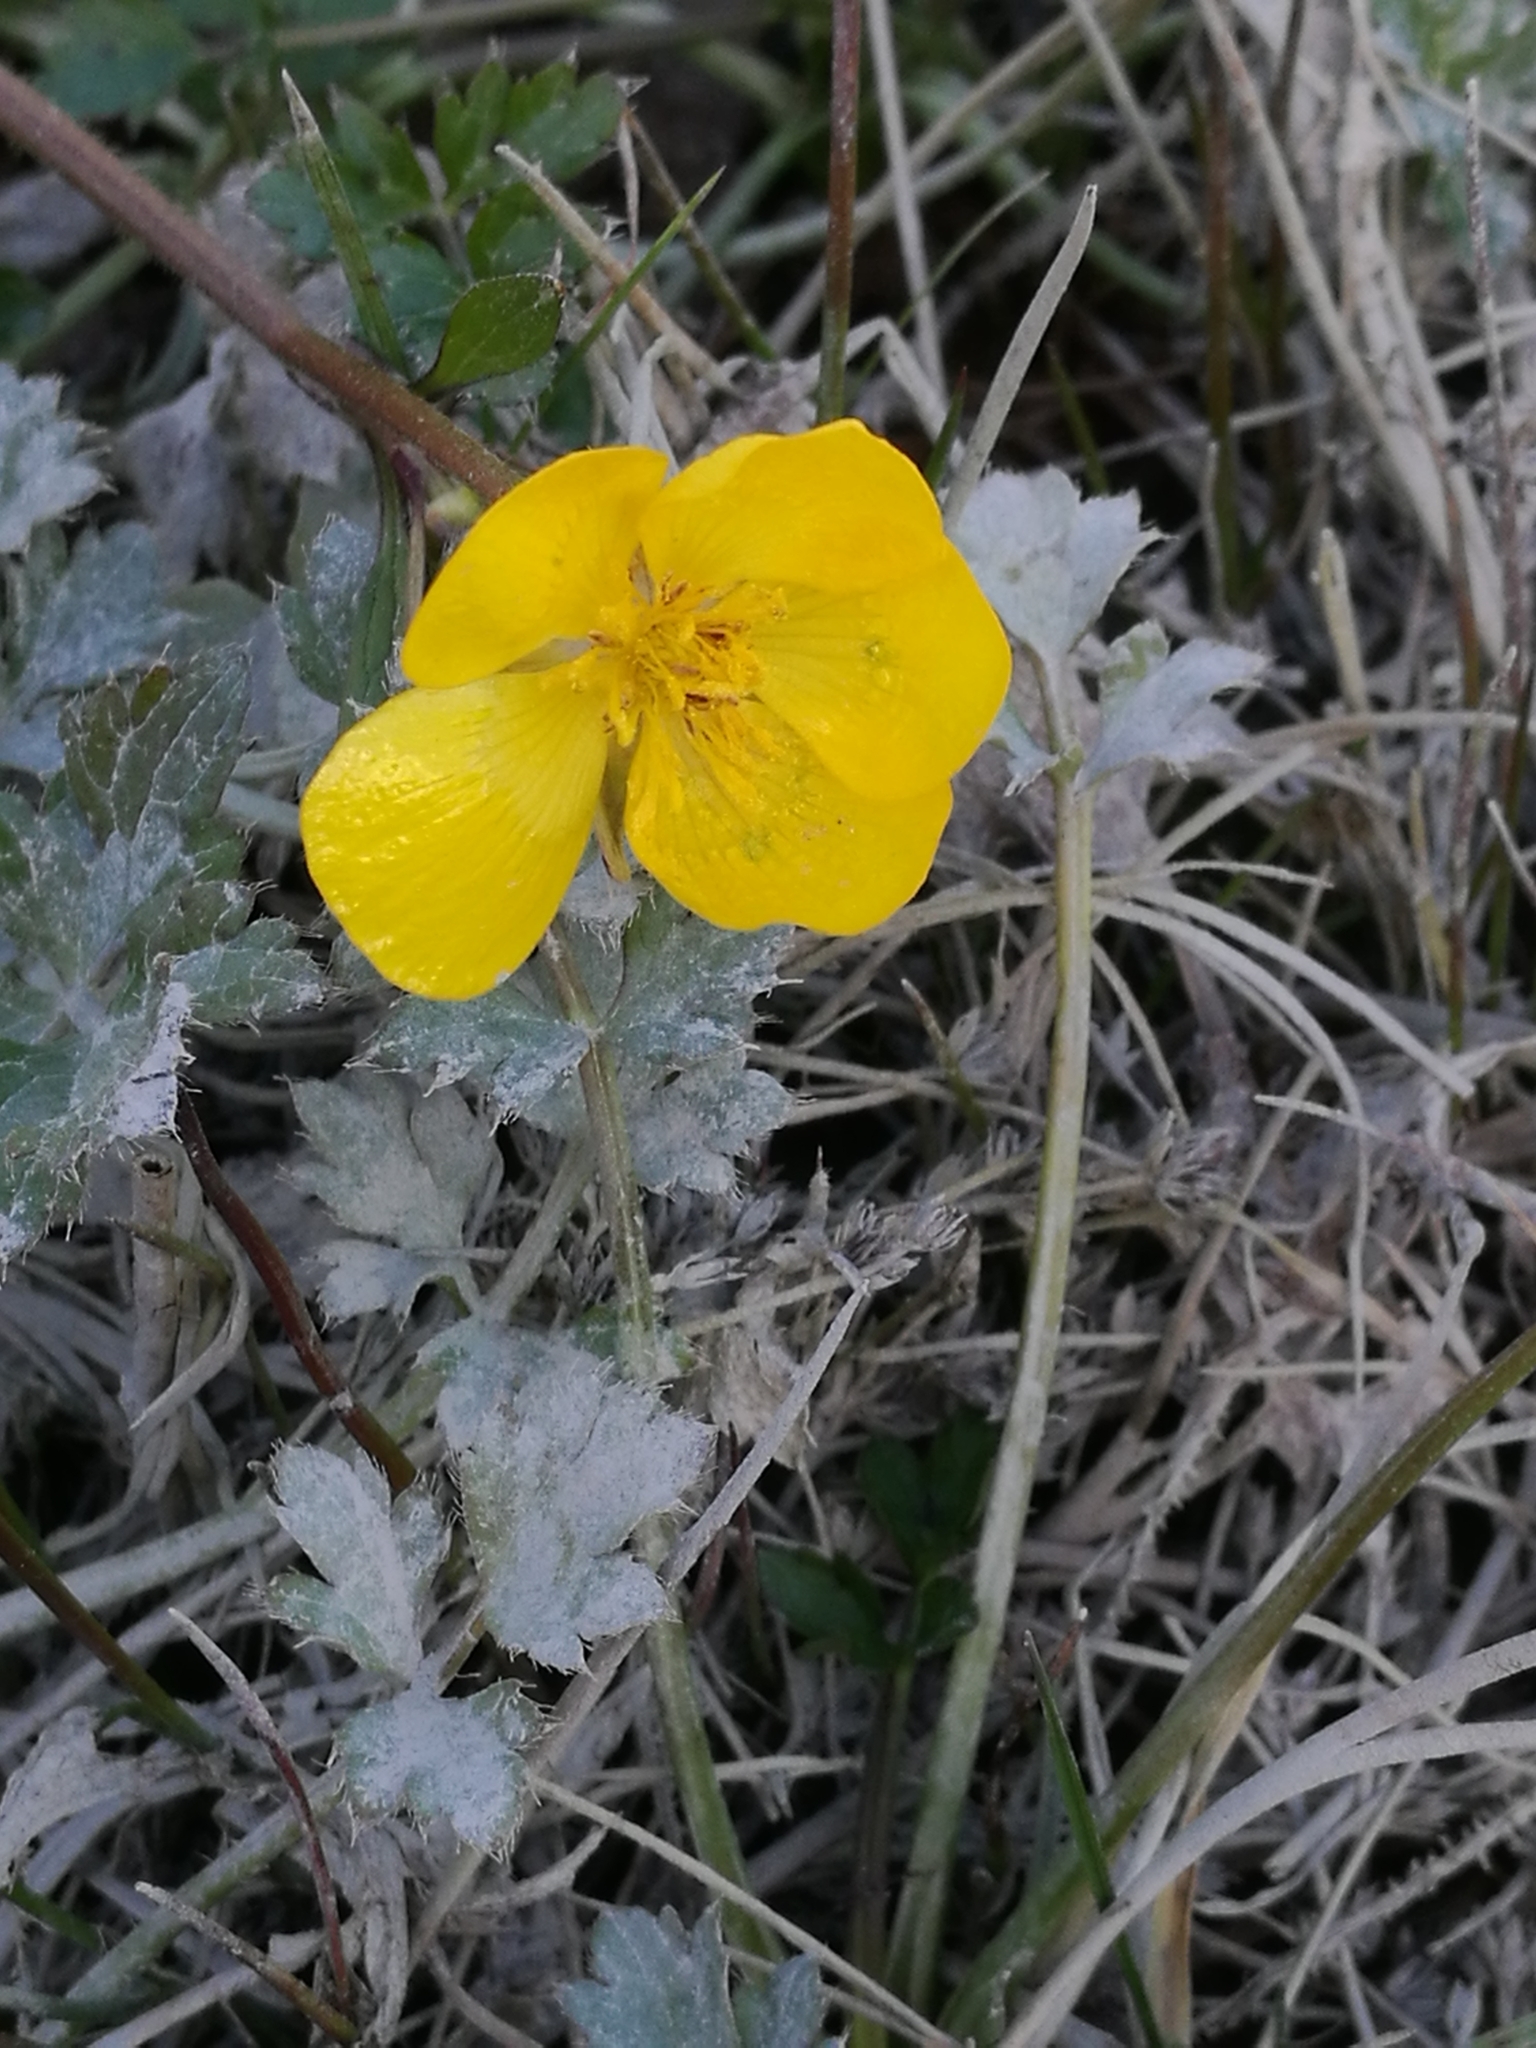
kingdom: Plantae
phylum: Tracheophyta
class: Magnoliopsida
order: Ranunculales
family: Ranunculaceae
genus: Ranunculus
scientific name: Ranunculus repens
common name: Creeping buttercup
